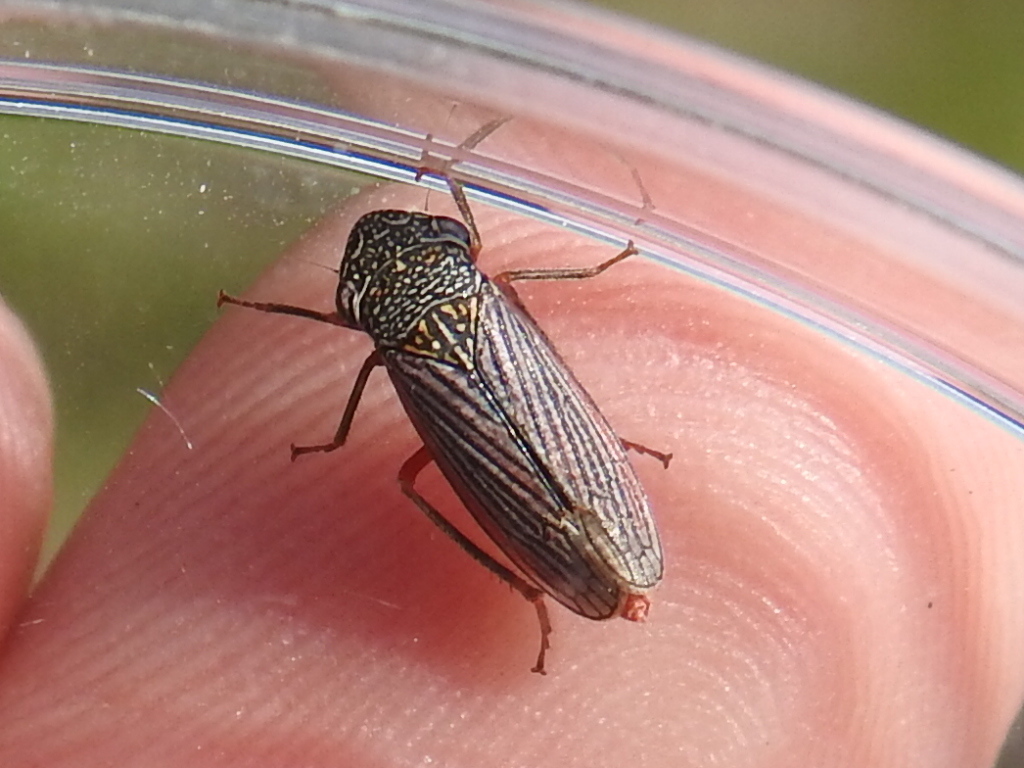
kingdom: Animalia
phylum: Arthropoda
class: Insecta
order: Hemiptera
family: Cicadellidae
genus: Cuerna
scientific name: Cuerna costalis
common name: Lateral-lined sharpshooter
